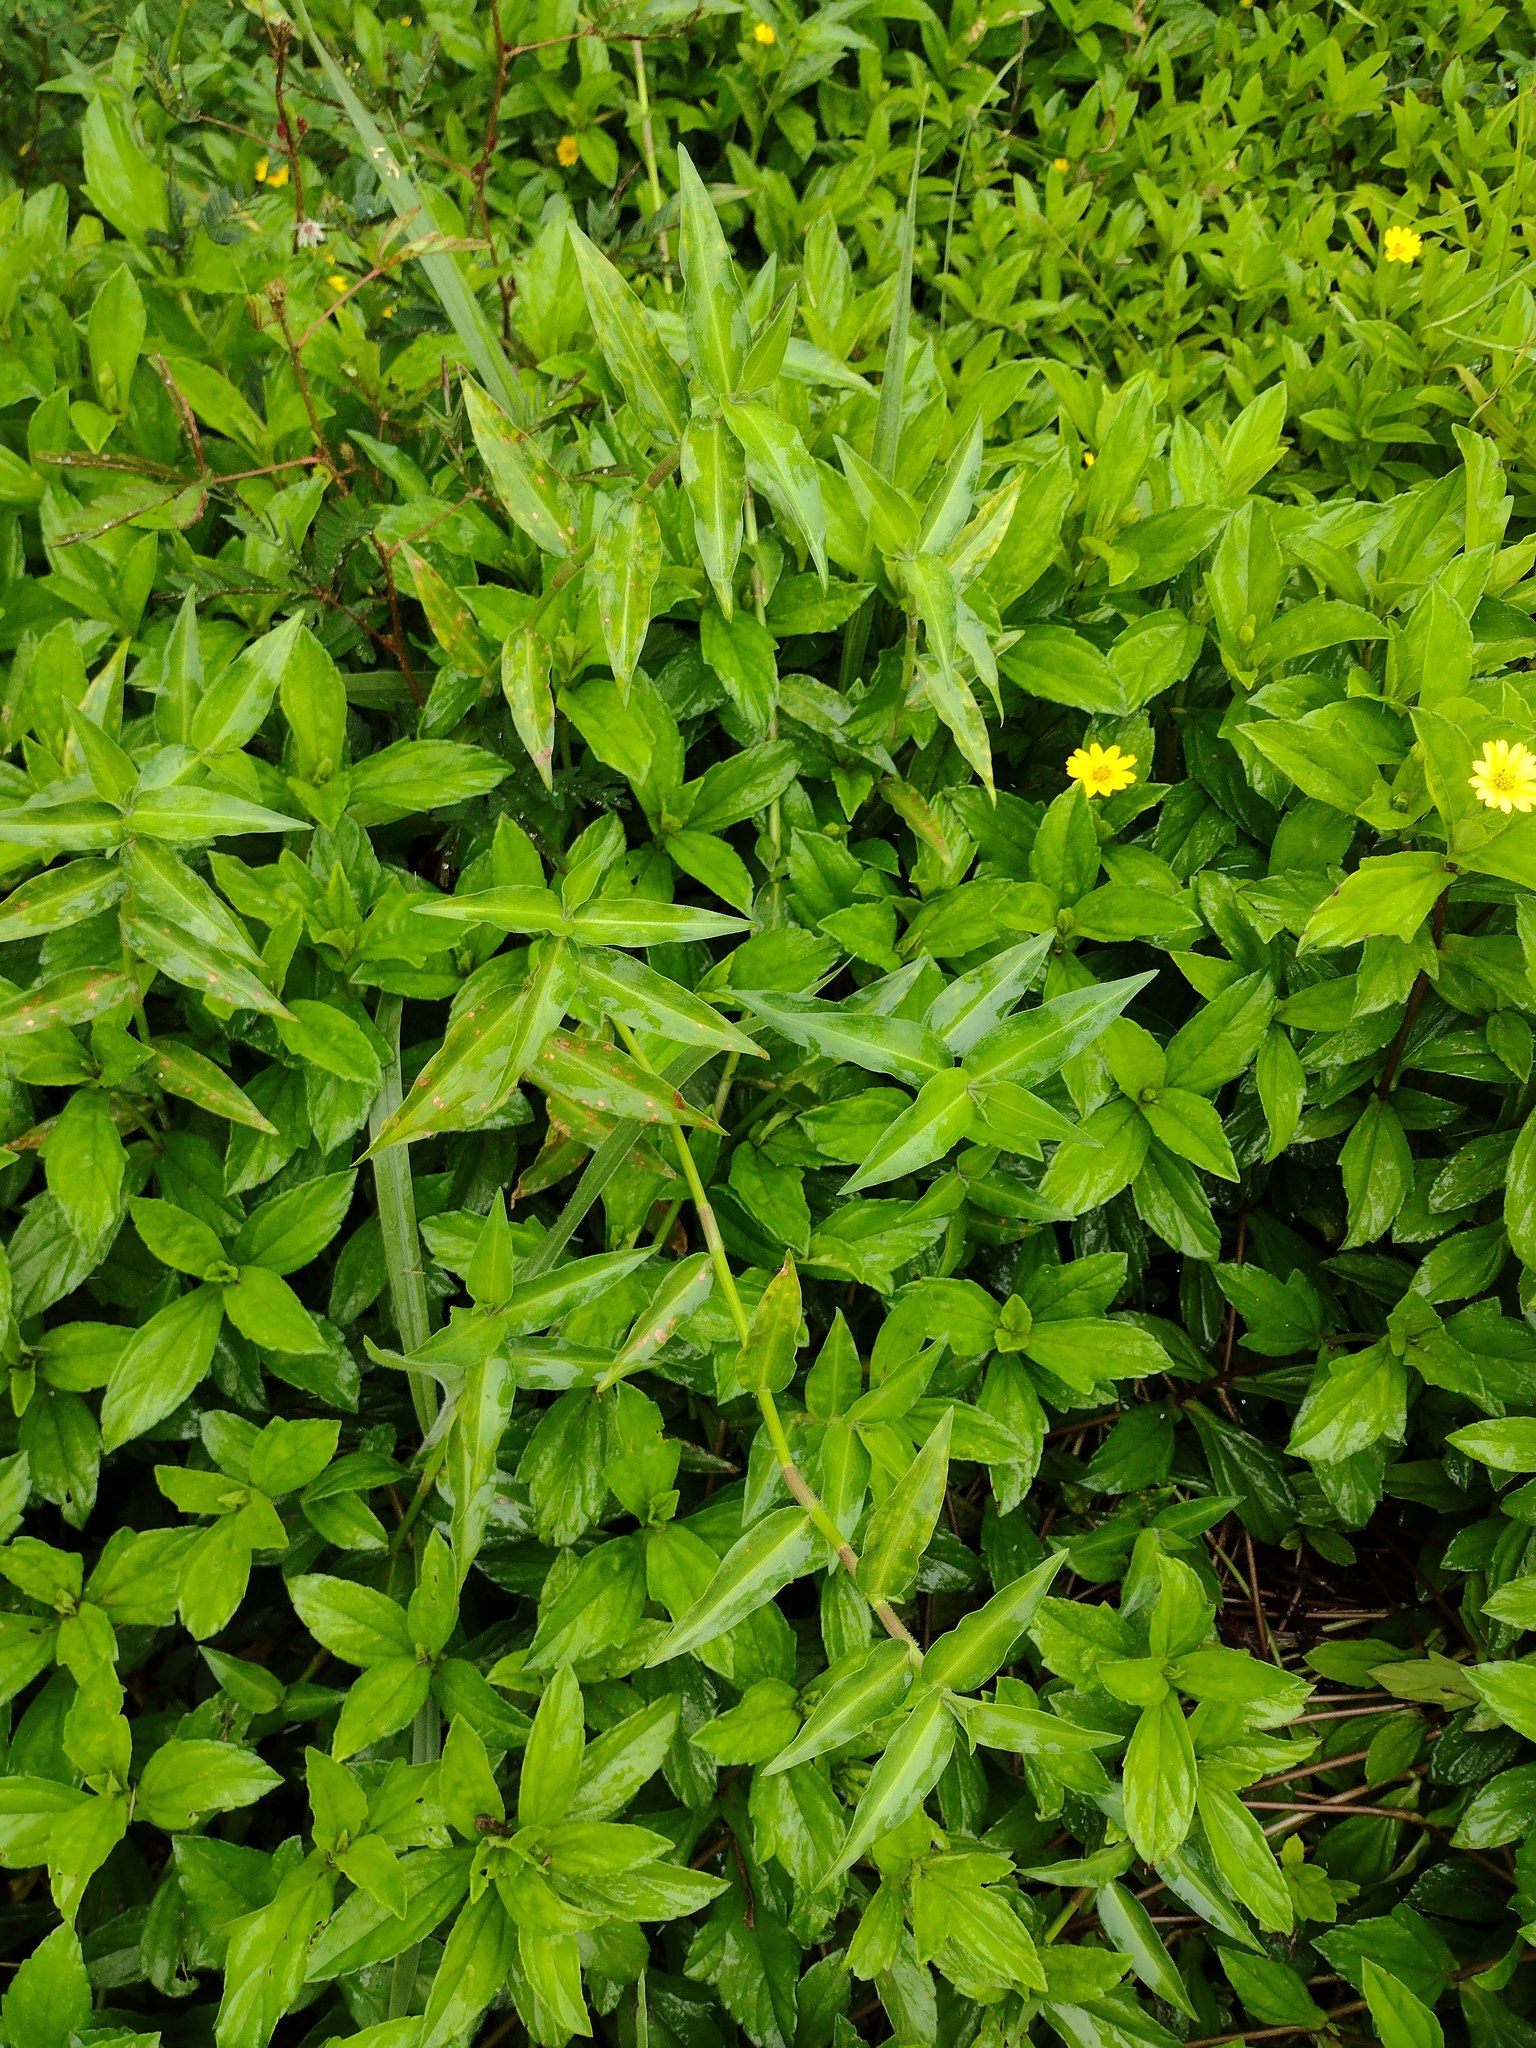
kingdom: Plantae
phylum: Tracheophyta
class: Magnoliopsida
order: Asterales
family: Asteraceae
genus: Sphagneticola
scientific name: Sphagneticola trilobata
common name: Bay biscayne creeping-oxeye
